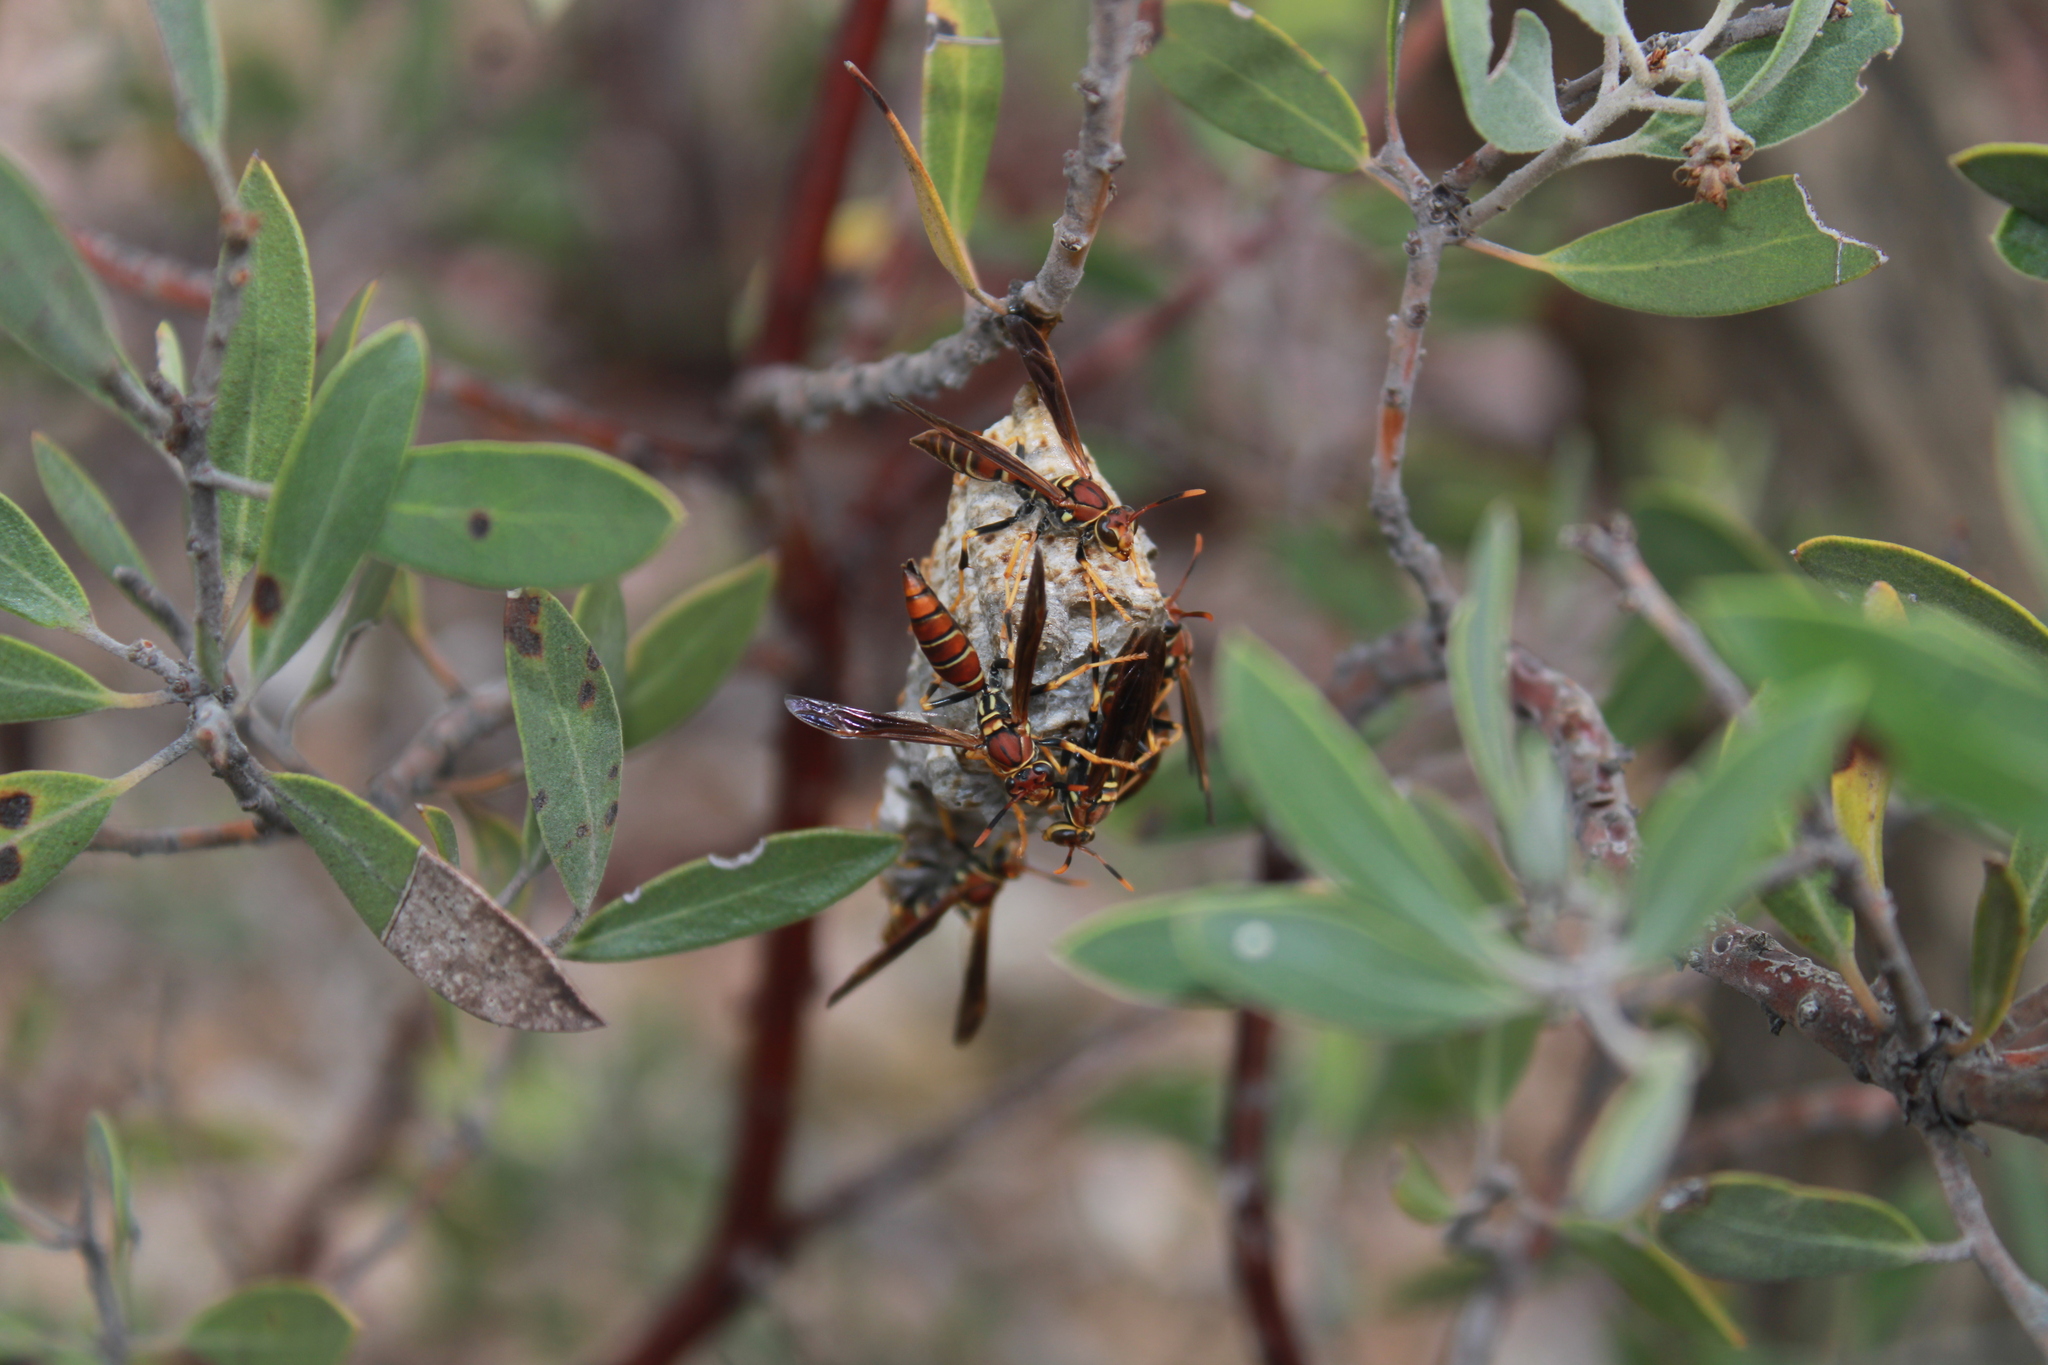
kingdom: Animalia
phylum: Arthropoda
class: Insecta
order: Hymenoptera
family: Eumenidae
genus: Polistes
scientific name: Polistes instabilis
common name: Unstable paper wasp
